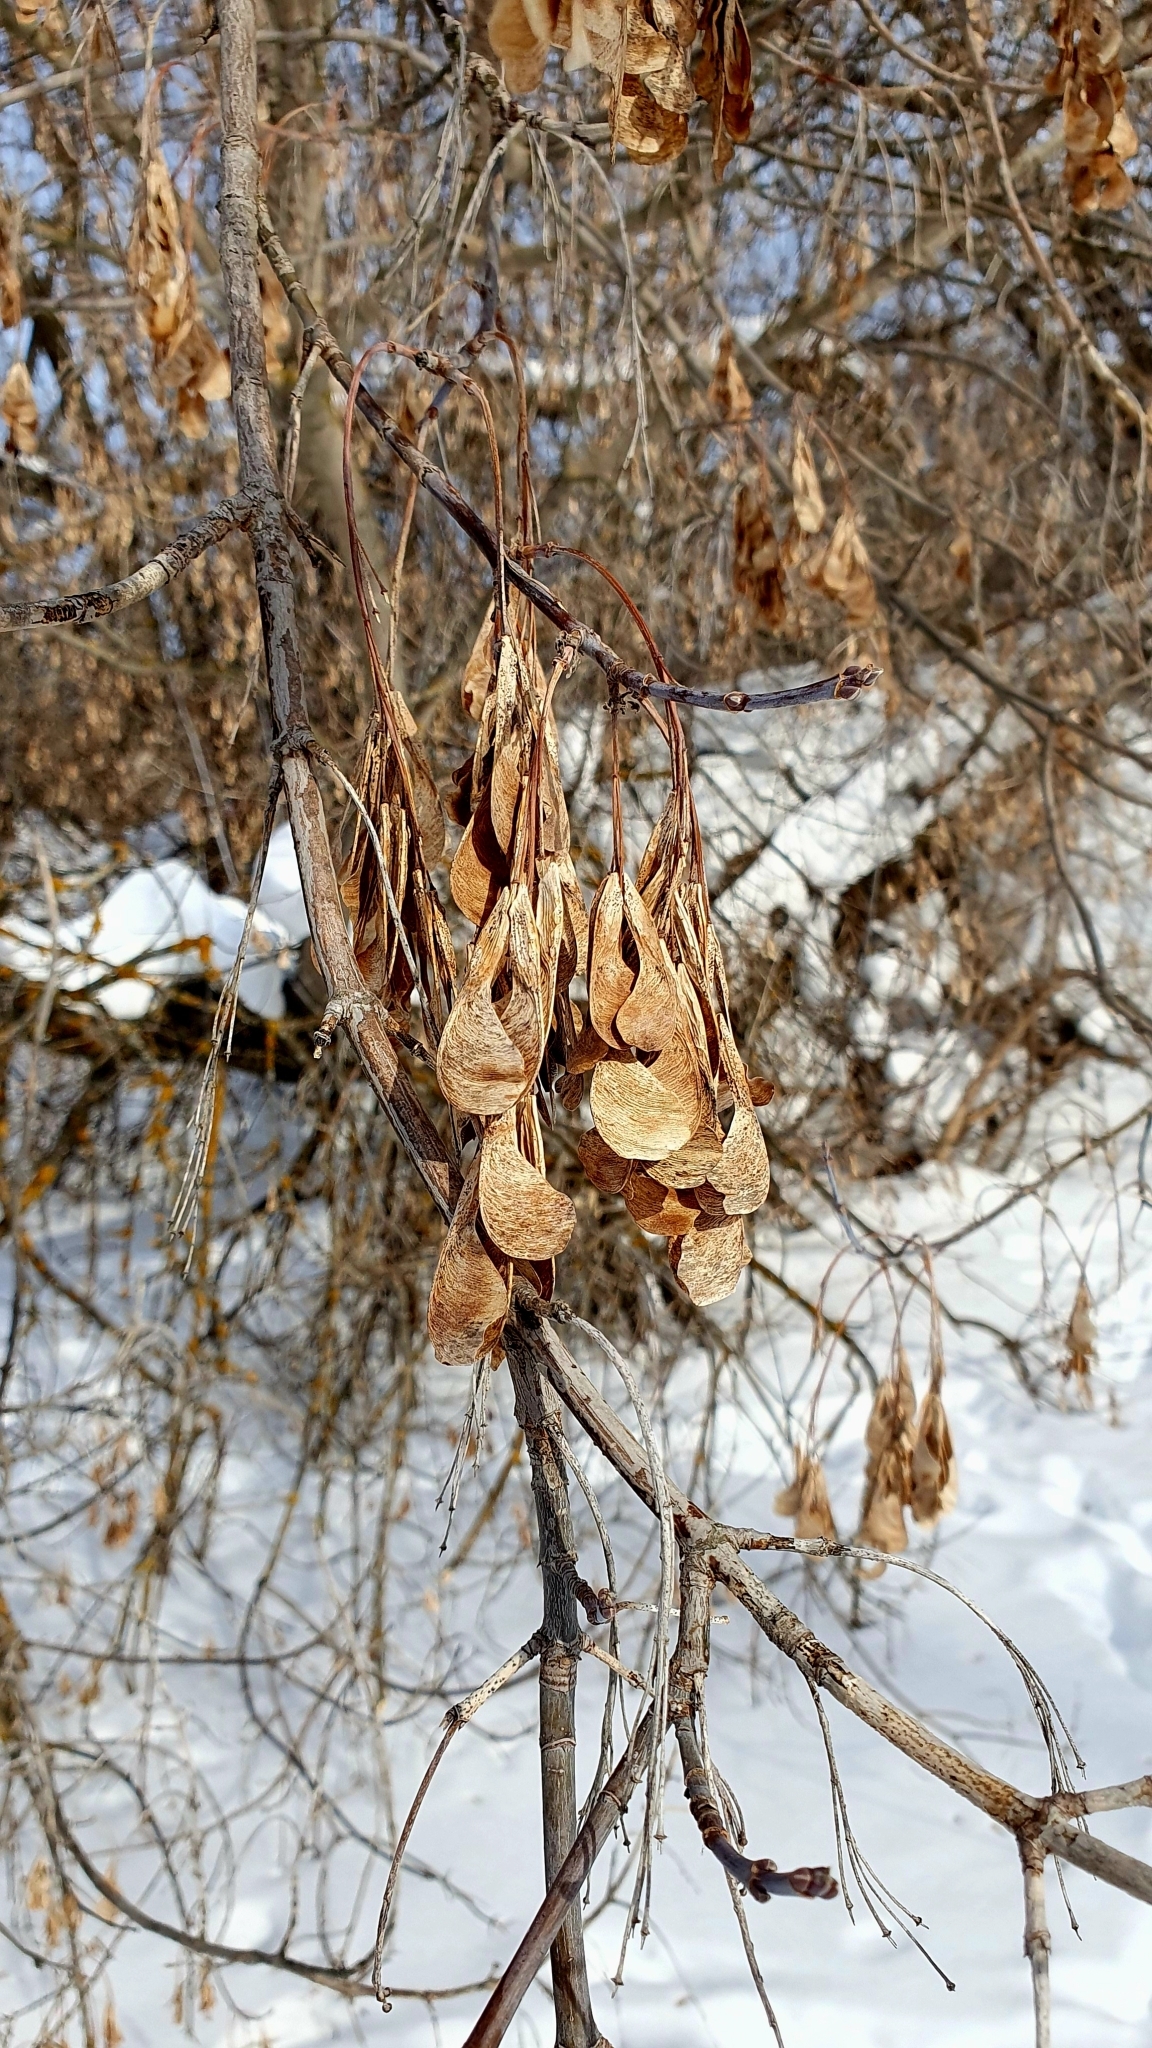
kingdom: Plantae
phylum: Tracheophyta
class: Magnoliopsida
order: Sapindales
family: Sapindaceae
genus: Acer
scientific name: Acer negundo
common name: Ashleaf maple
